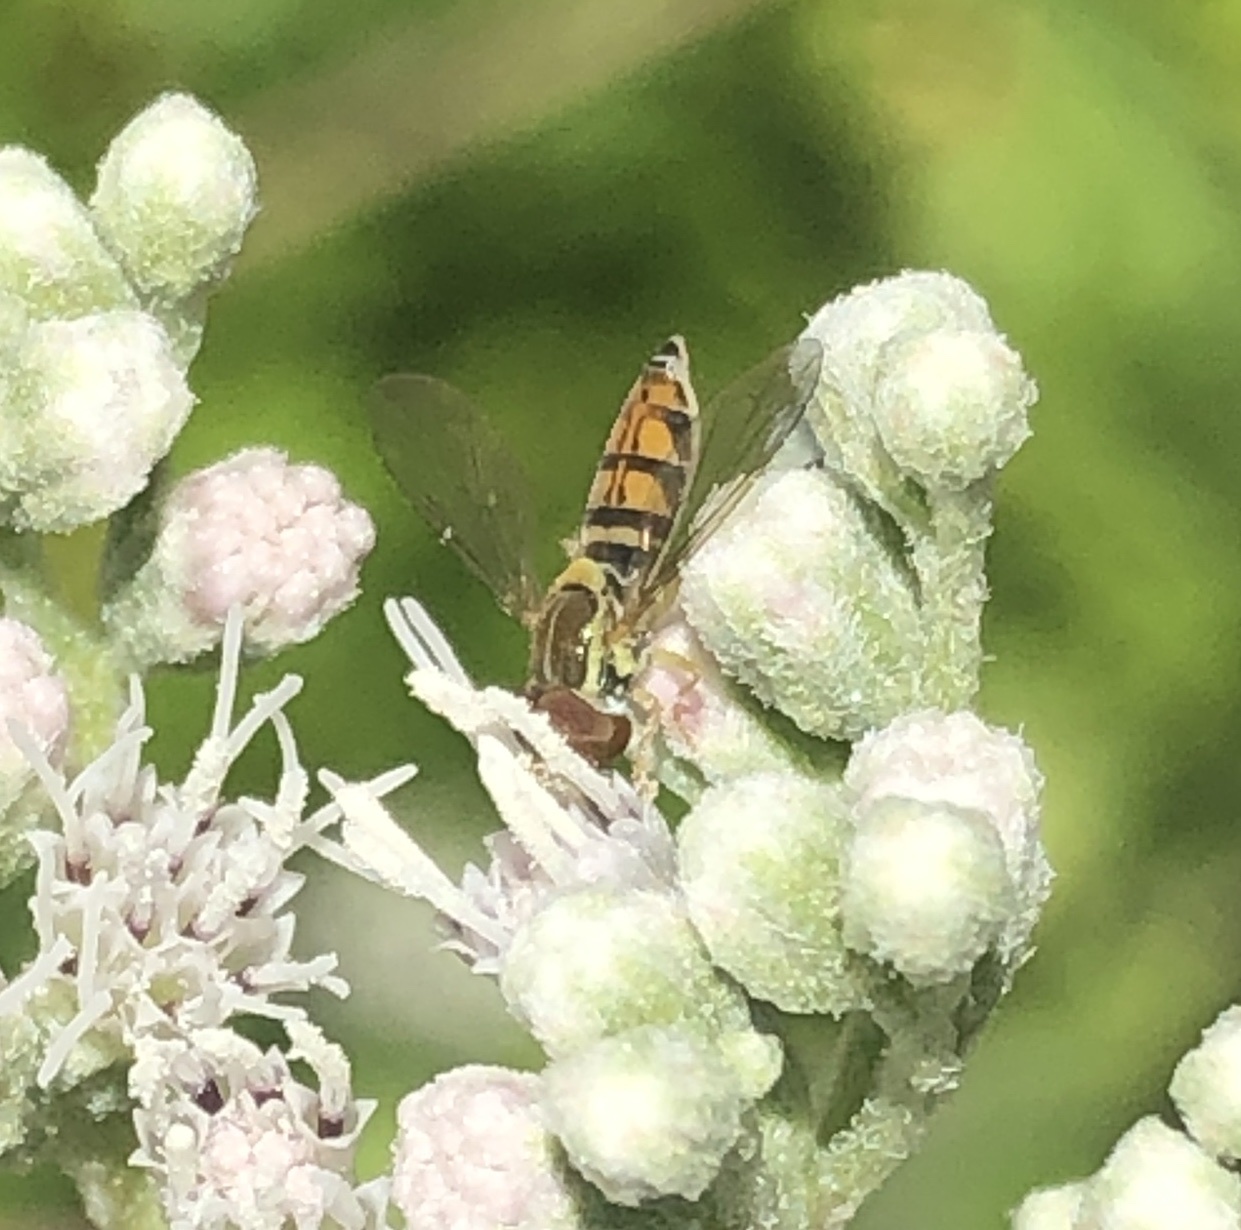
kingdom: Animalia
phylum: Arthropoda
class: Insecta
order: Diptera
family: Syrphidae
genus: Toxomerus
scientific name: Toxomerus marginatus
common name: Syrphid fly
